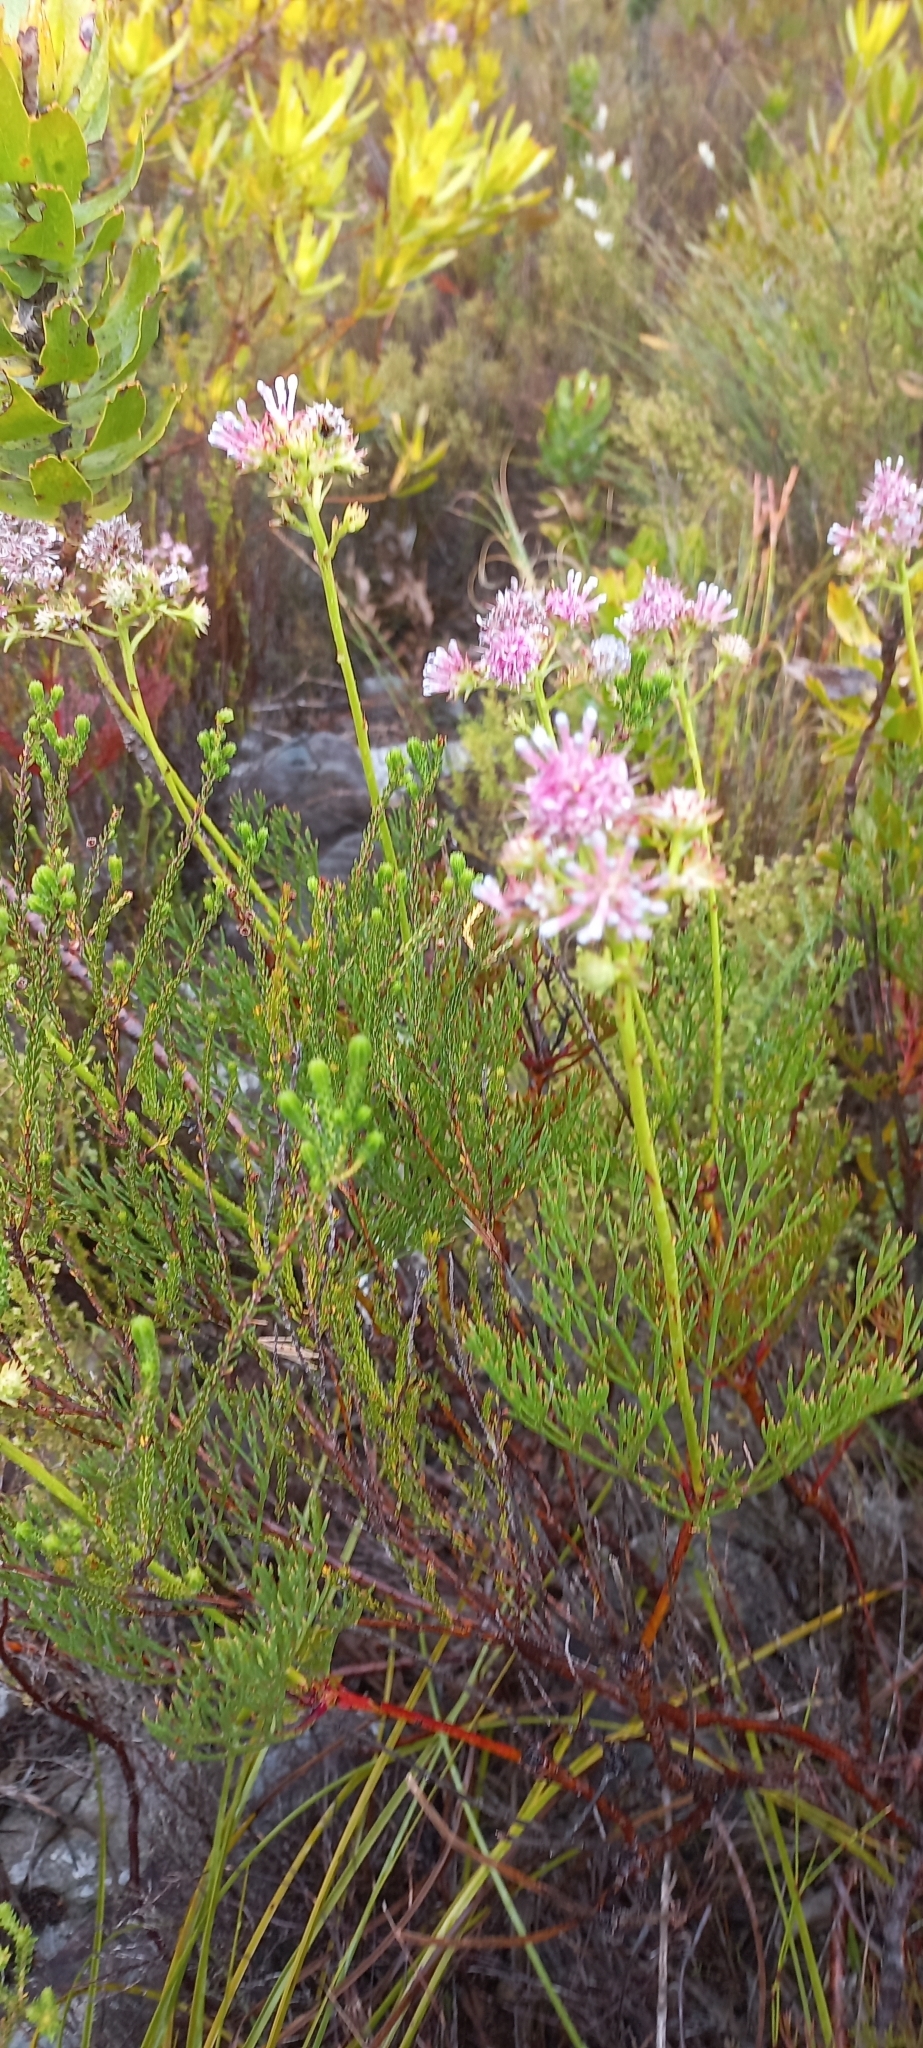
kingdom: Plantae
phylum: Tracheophyta
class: Magnoliopsida
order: Proteales
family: Proteaceae
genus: Serruria
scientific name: Serruria elongata
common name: Long-stalk spiderhead
